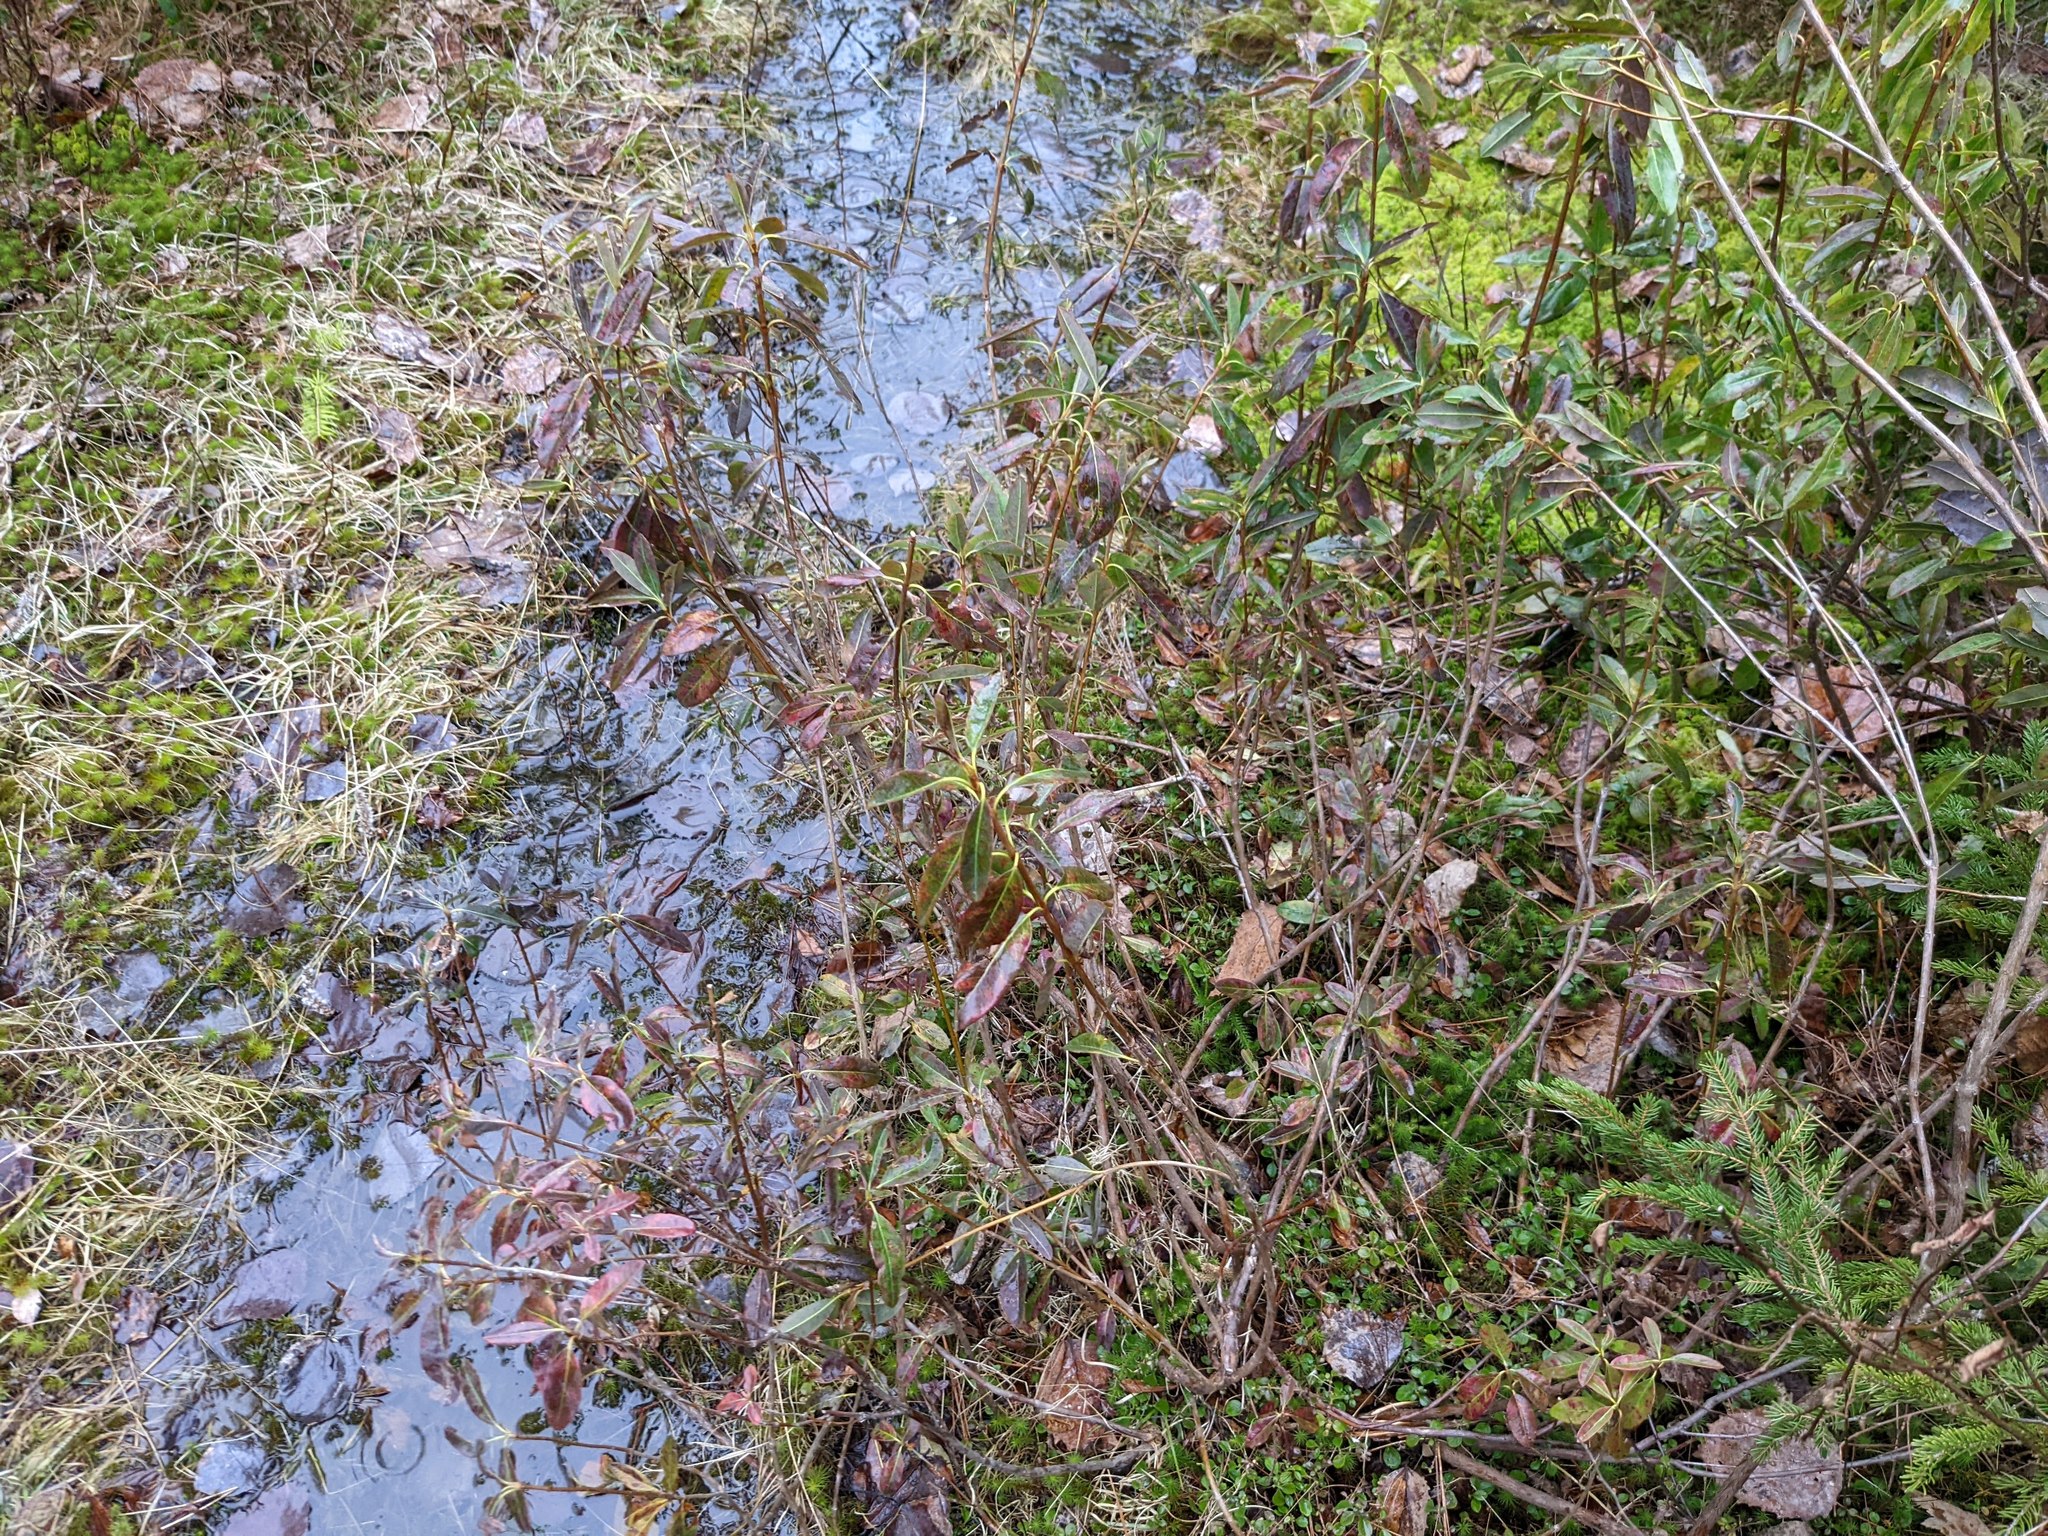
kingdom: Plantae
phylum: Tracheophyta
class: Magnoliopsida
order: Ericales
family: Ericaceae
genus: Kalmia
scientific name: Kalmia angustifolia
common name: Sheep-laurel
